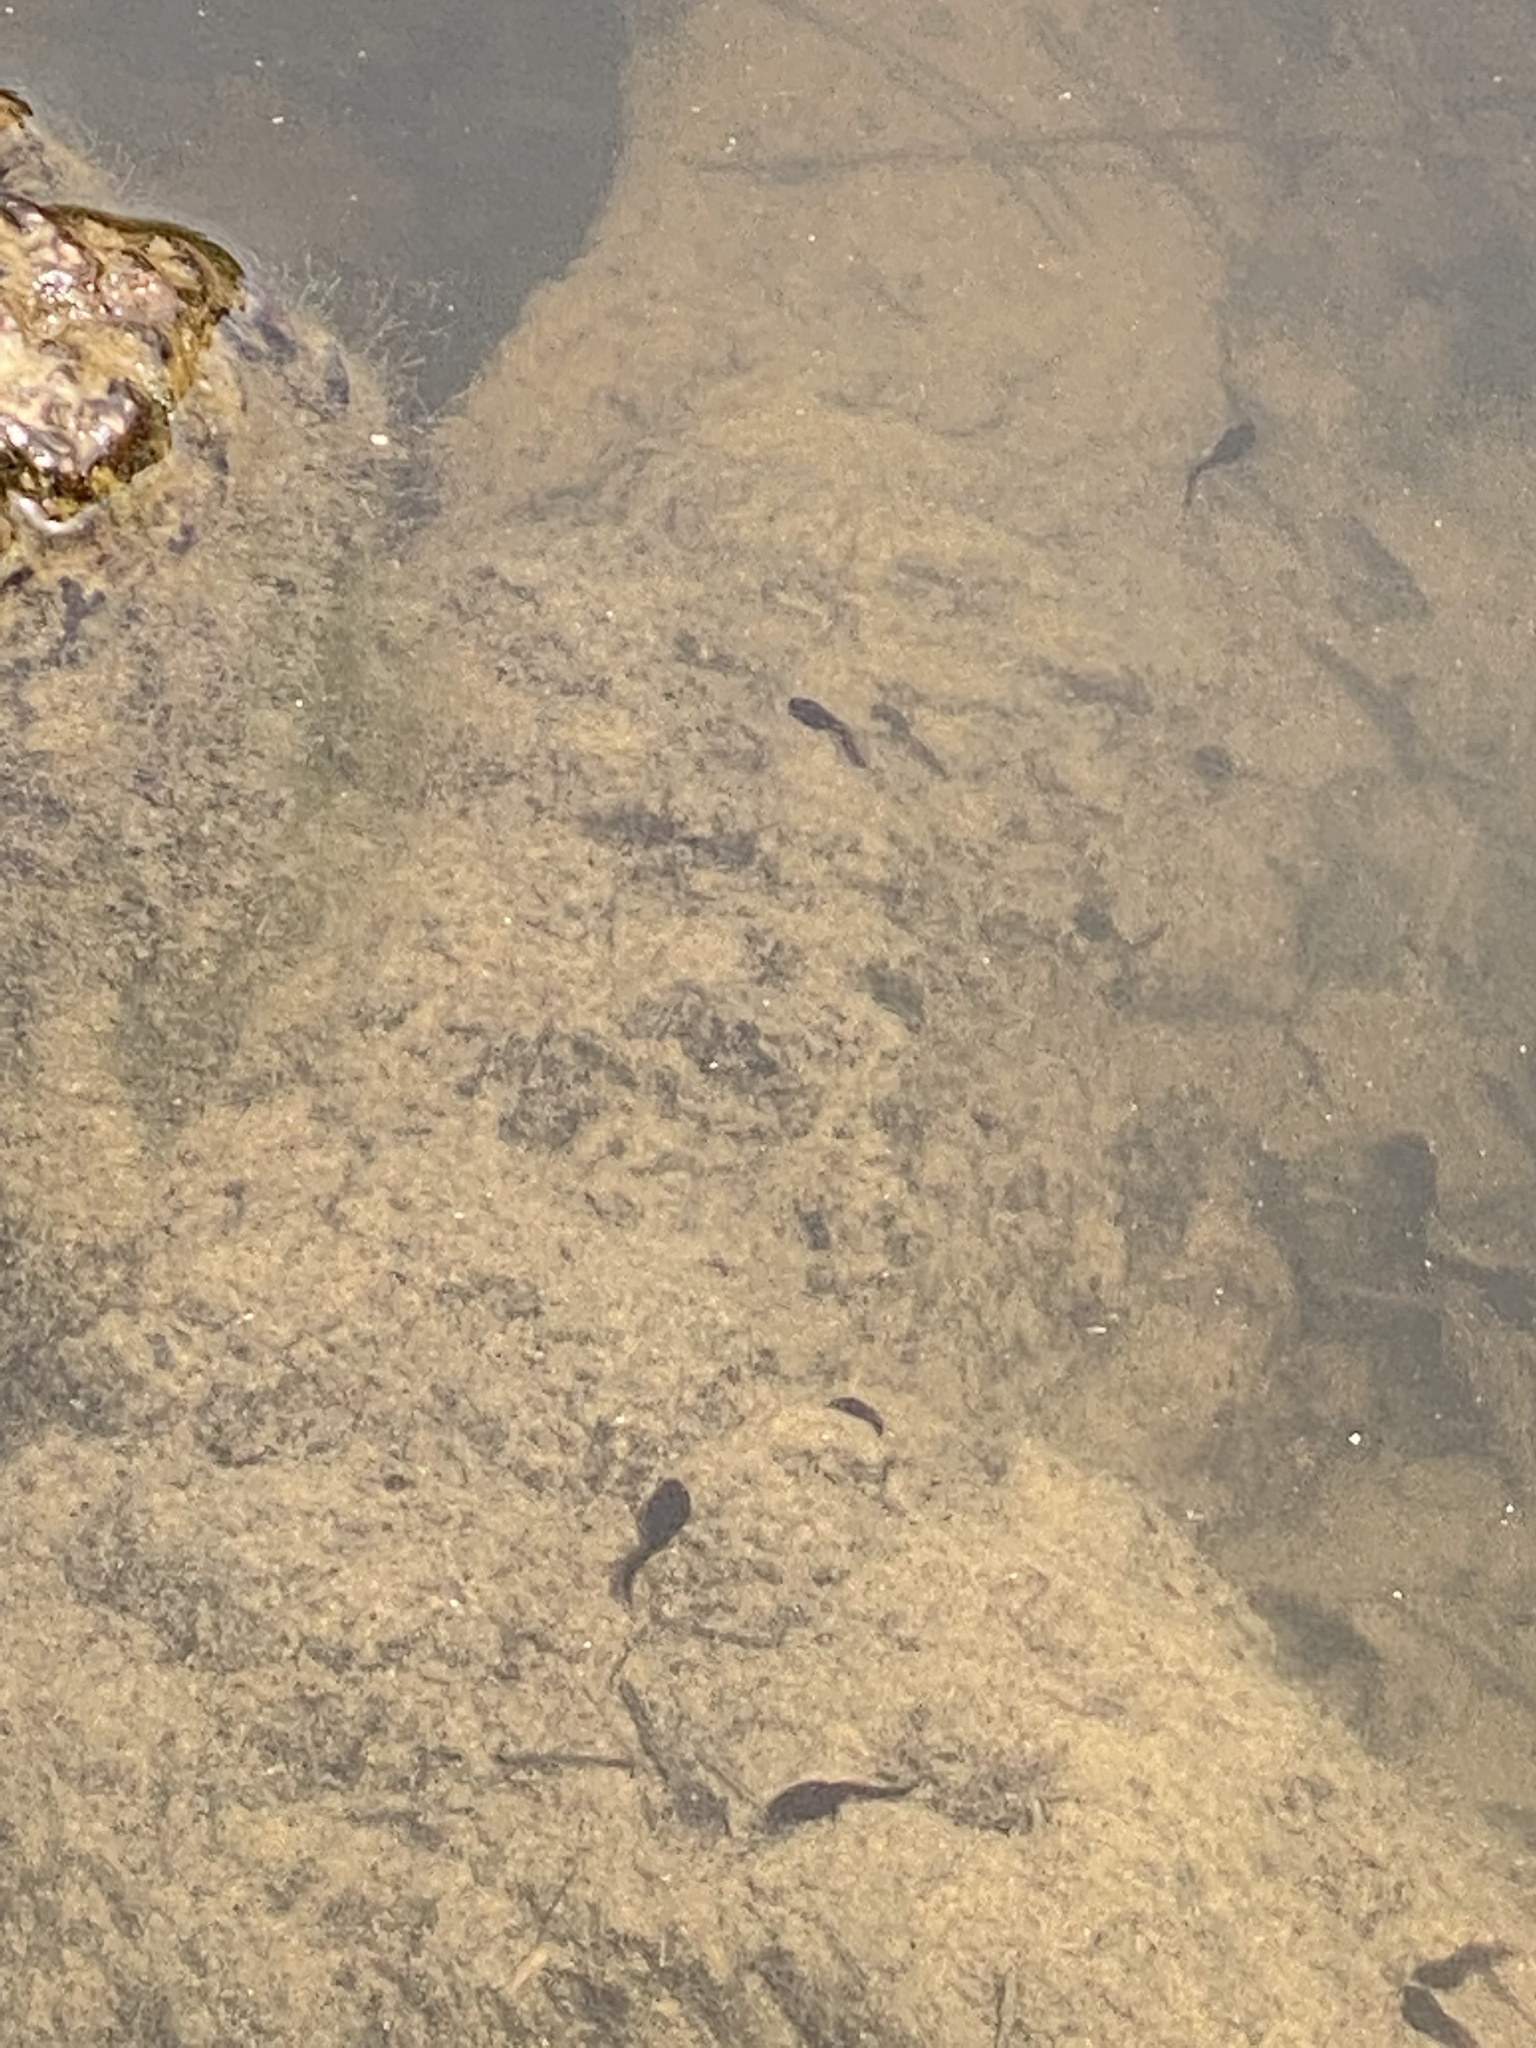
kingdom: Animalia
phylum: Chordata
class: Amphibia
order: Anura
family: Bufonidae
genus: Bufo
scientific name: Bufo bufo
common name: Common toad
